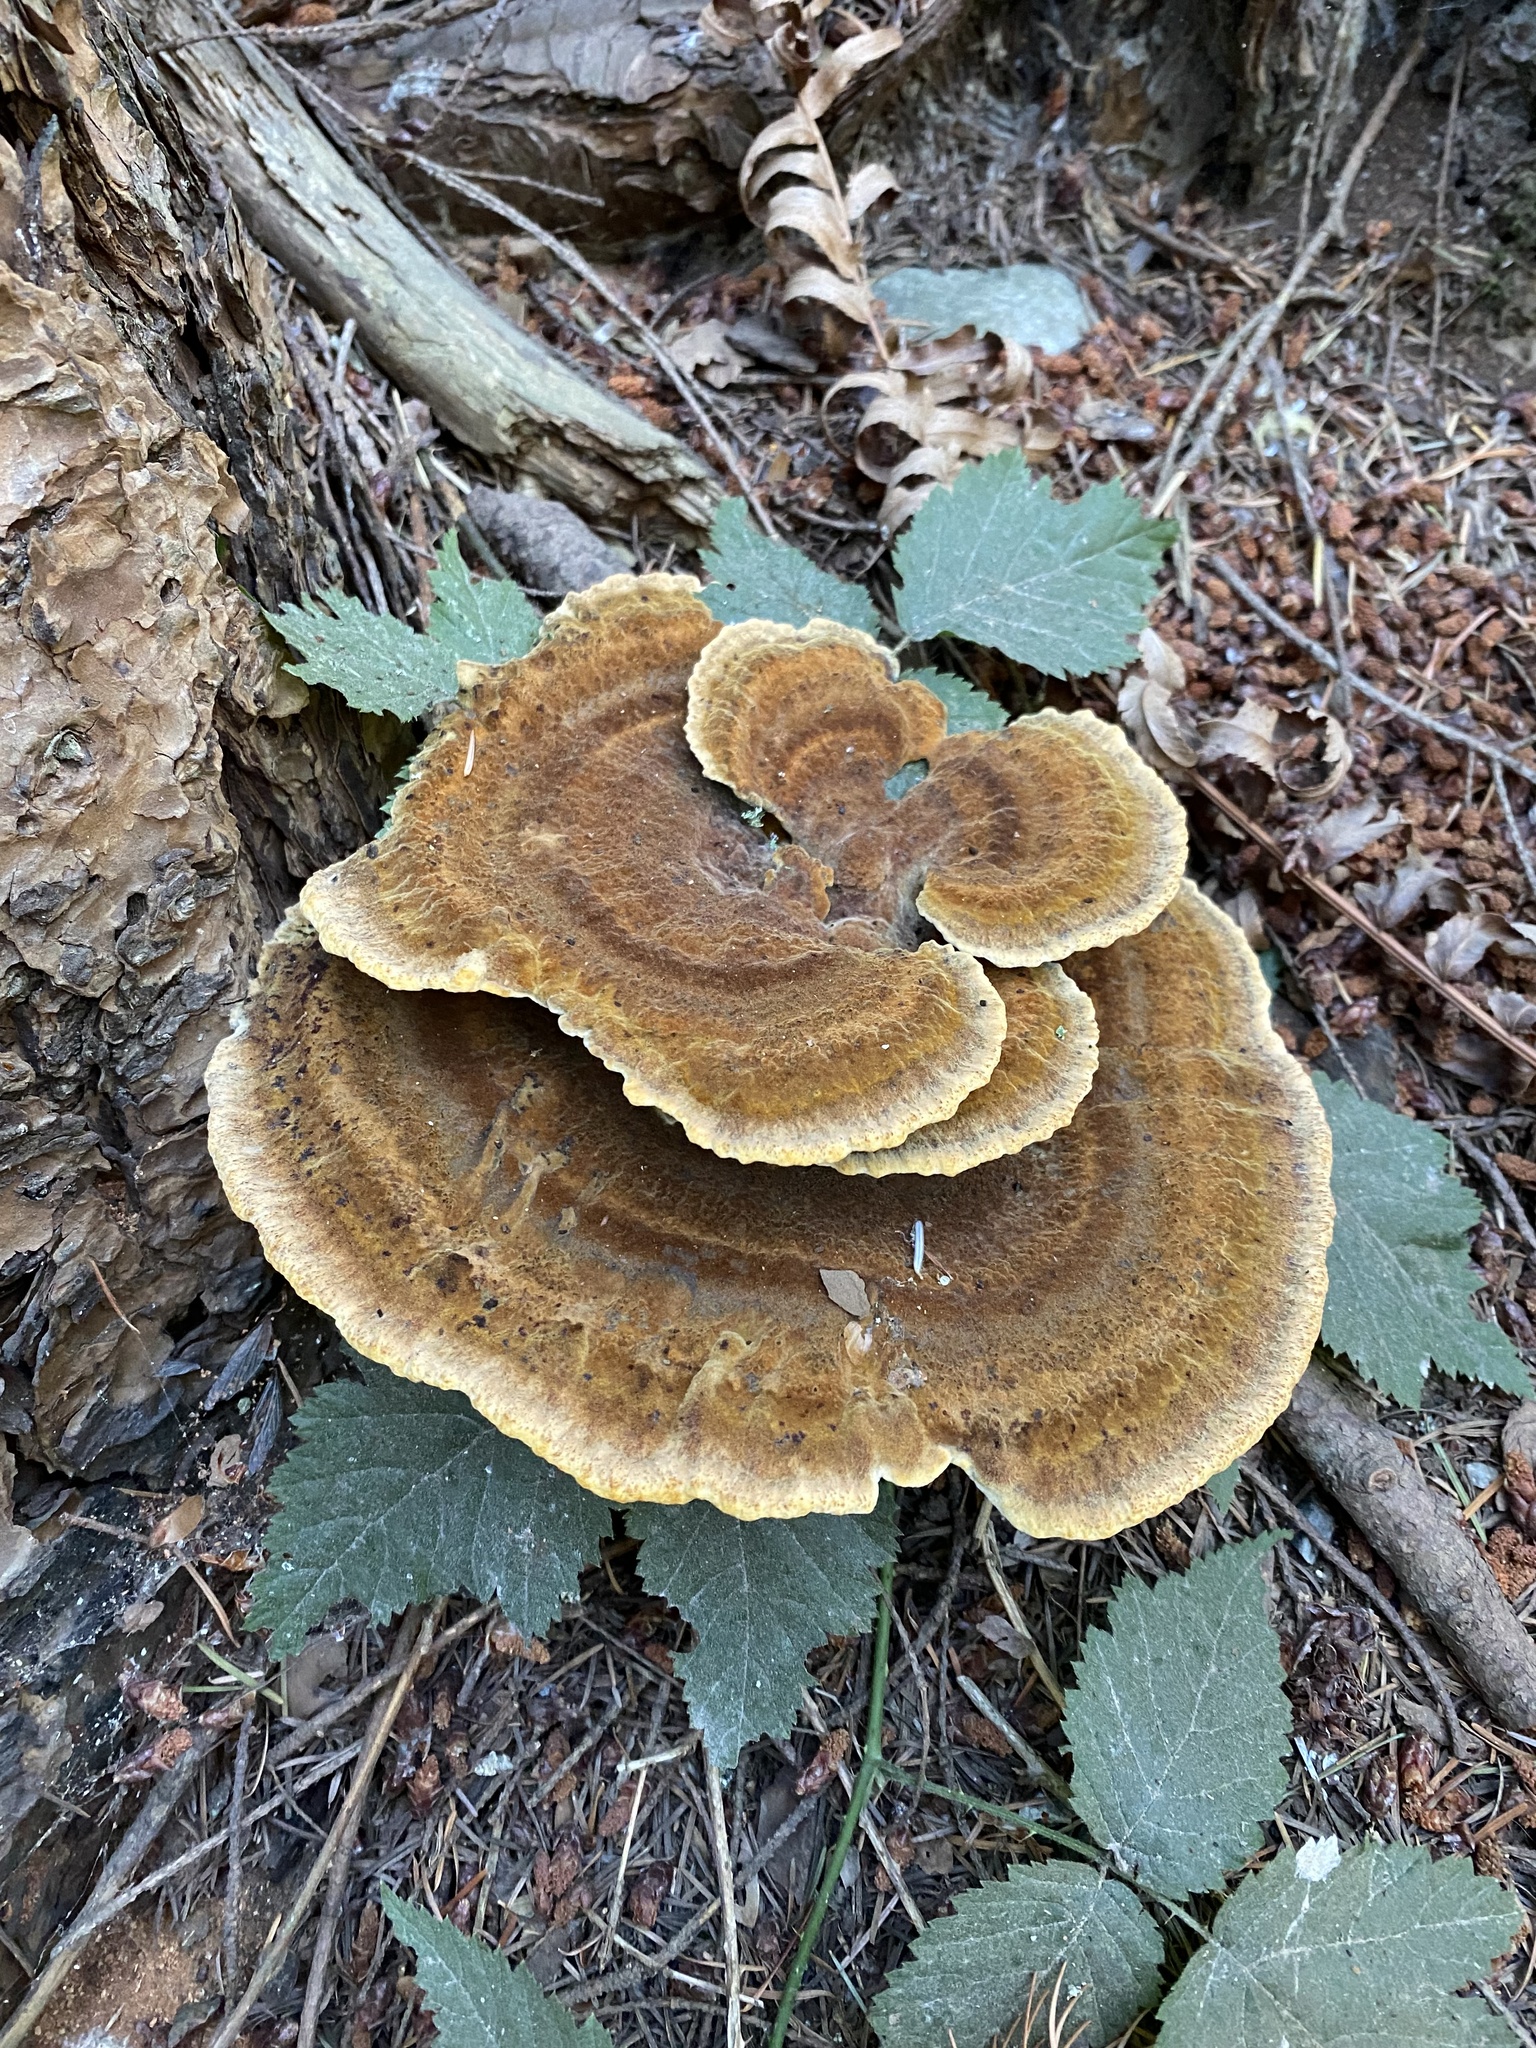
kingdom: Fungi
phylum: Basidiomycota
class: Agaricomycetes
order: Polyporales
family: Laetiporaceae
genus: Phaeolus
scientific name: Phaeolus schweinitzii
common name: Dyer's mazegill
